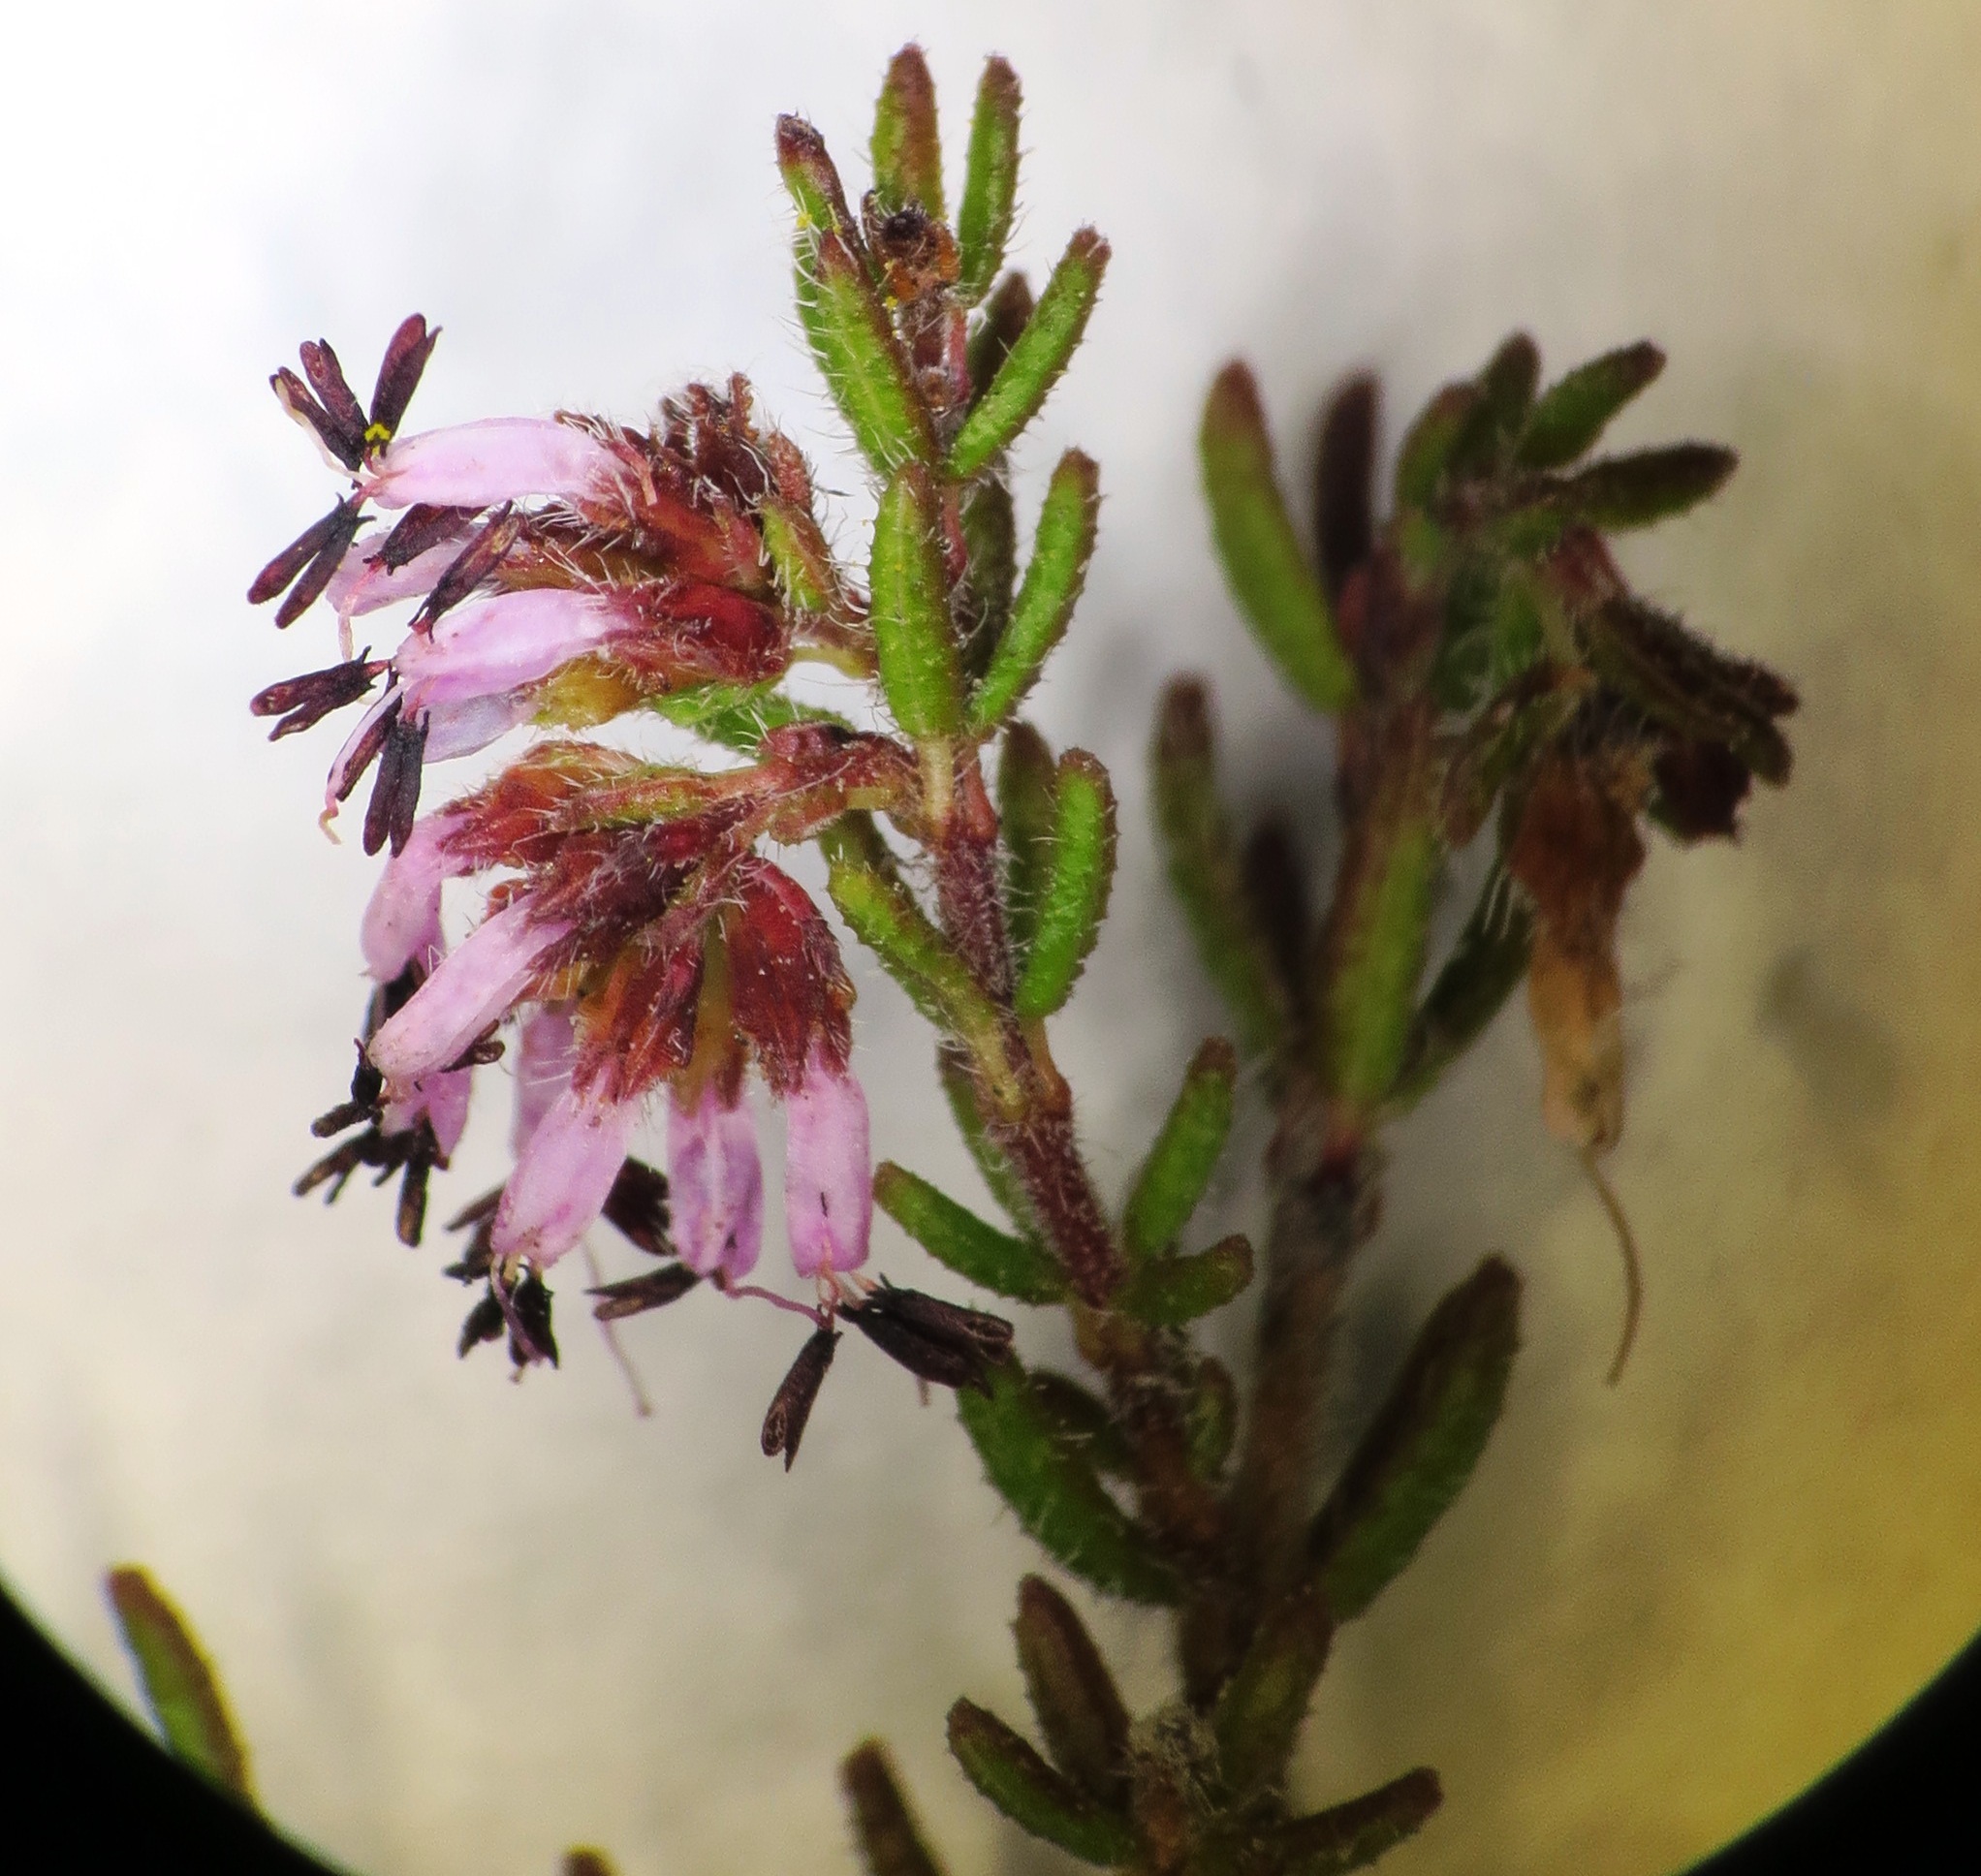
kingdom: Plantae
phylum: Tracheophyta
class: Magnoliopsida
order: Ericales
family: Ericaceae
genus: Erica
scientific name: Erica glabella
